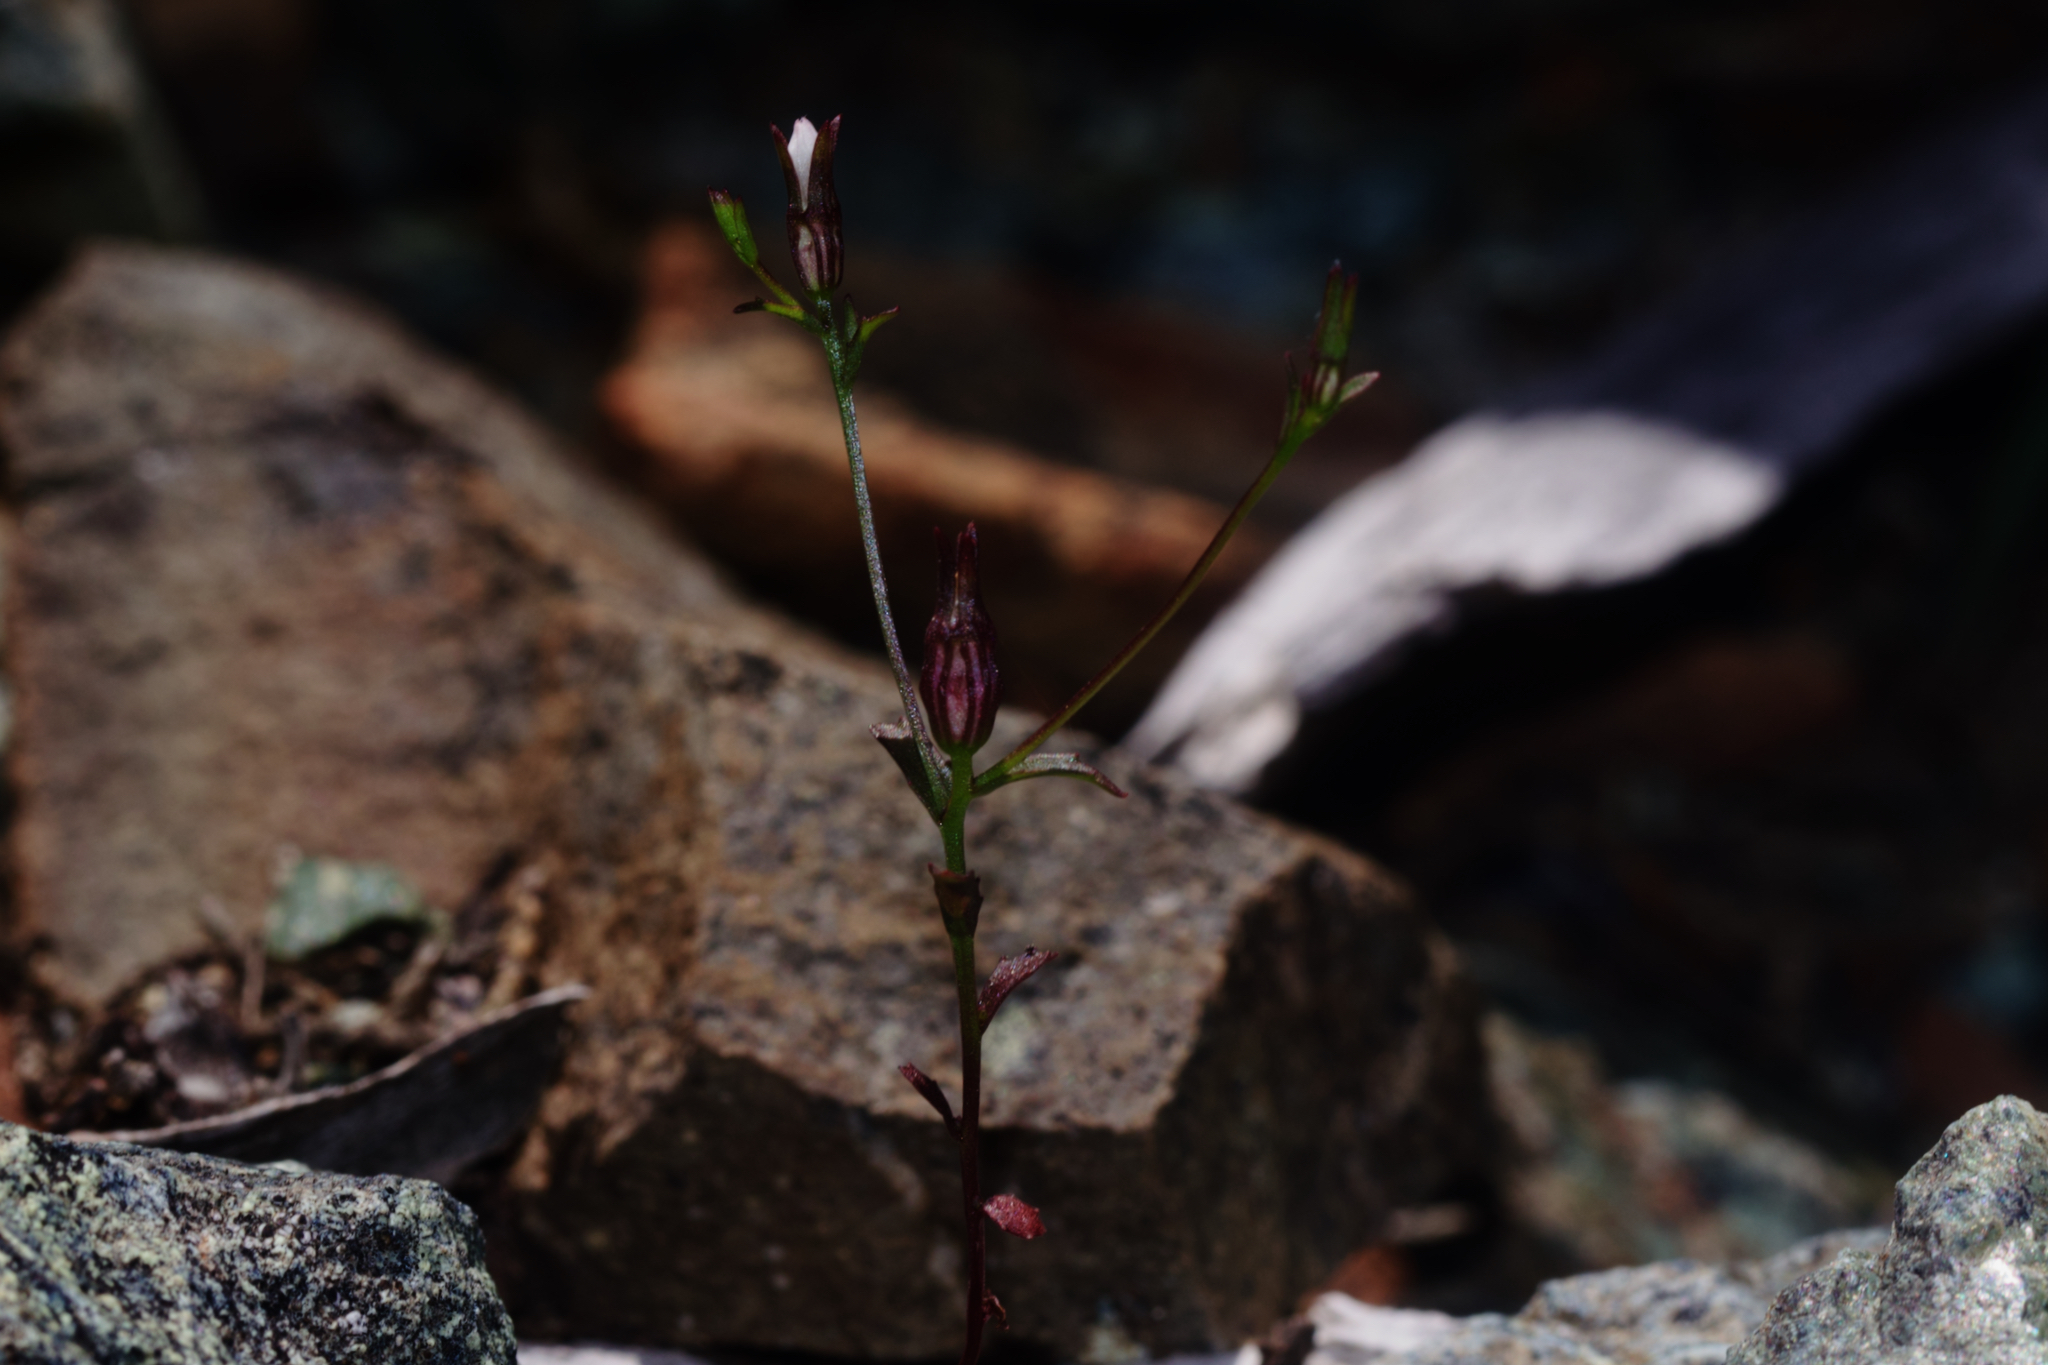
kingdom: Plantae
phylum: Tracheophyta
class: Magnoliopsida
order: Asterales
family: Campanulaceae
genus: Ravenella
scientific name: Ravenella griffinii
